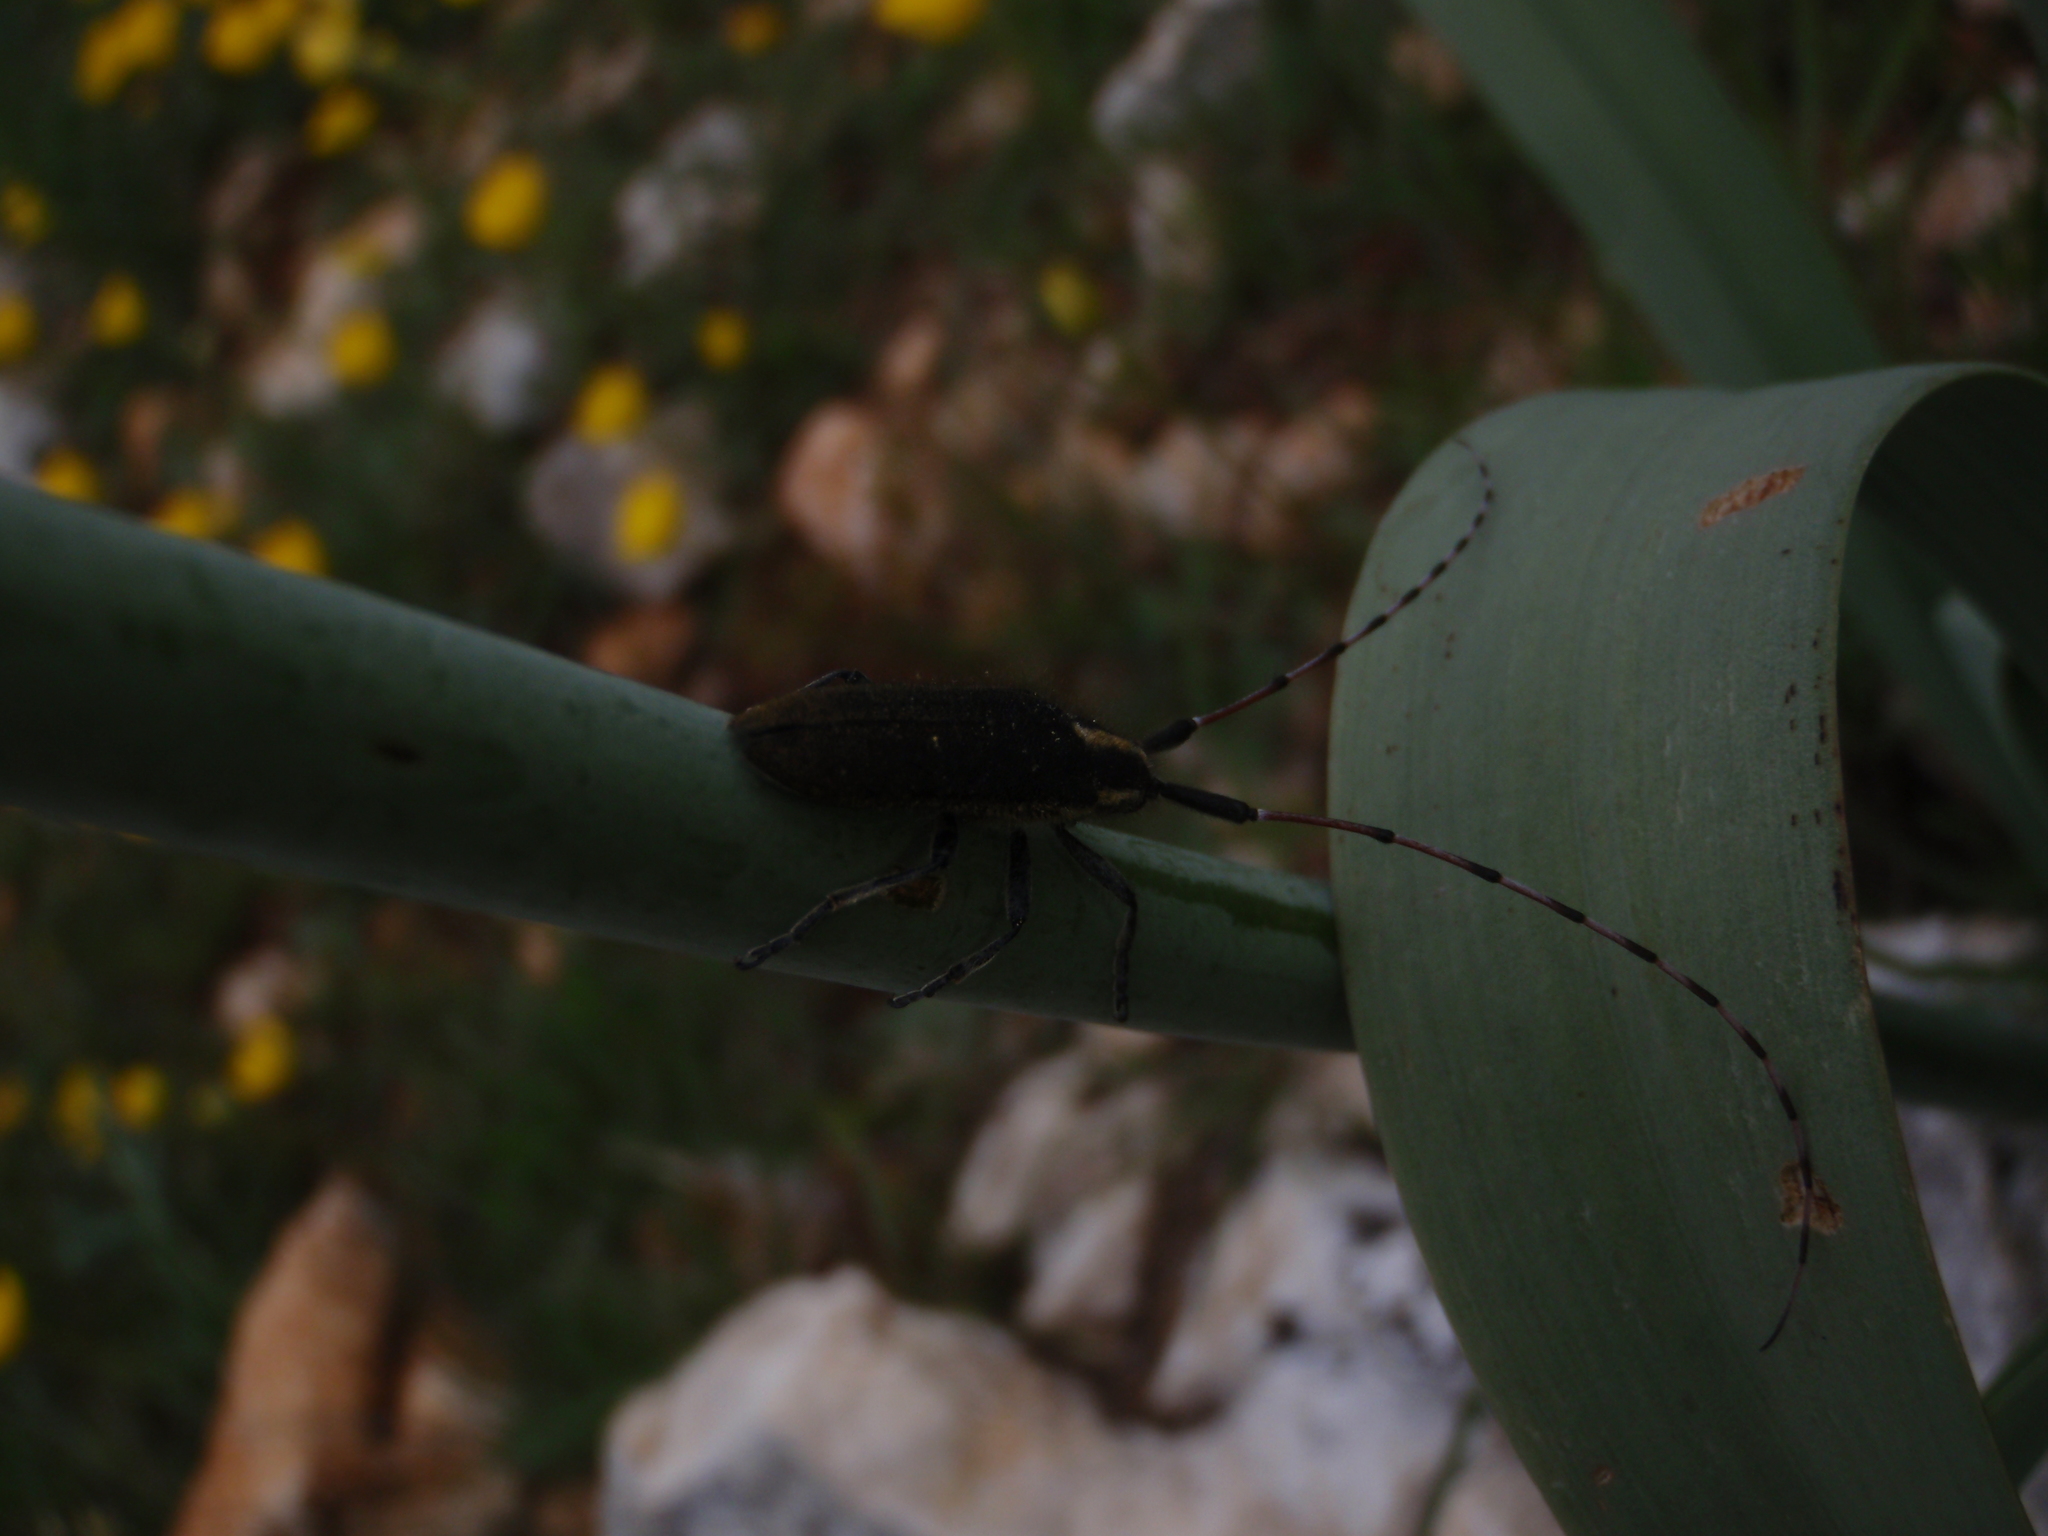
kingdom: Animalia
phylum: Arthropoda
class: Insecta
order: Coleoptera
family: Cerambycidae
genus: Agapanthia
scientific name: Agapanthia asphodeli
